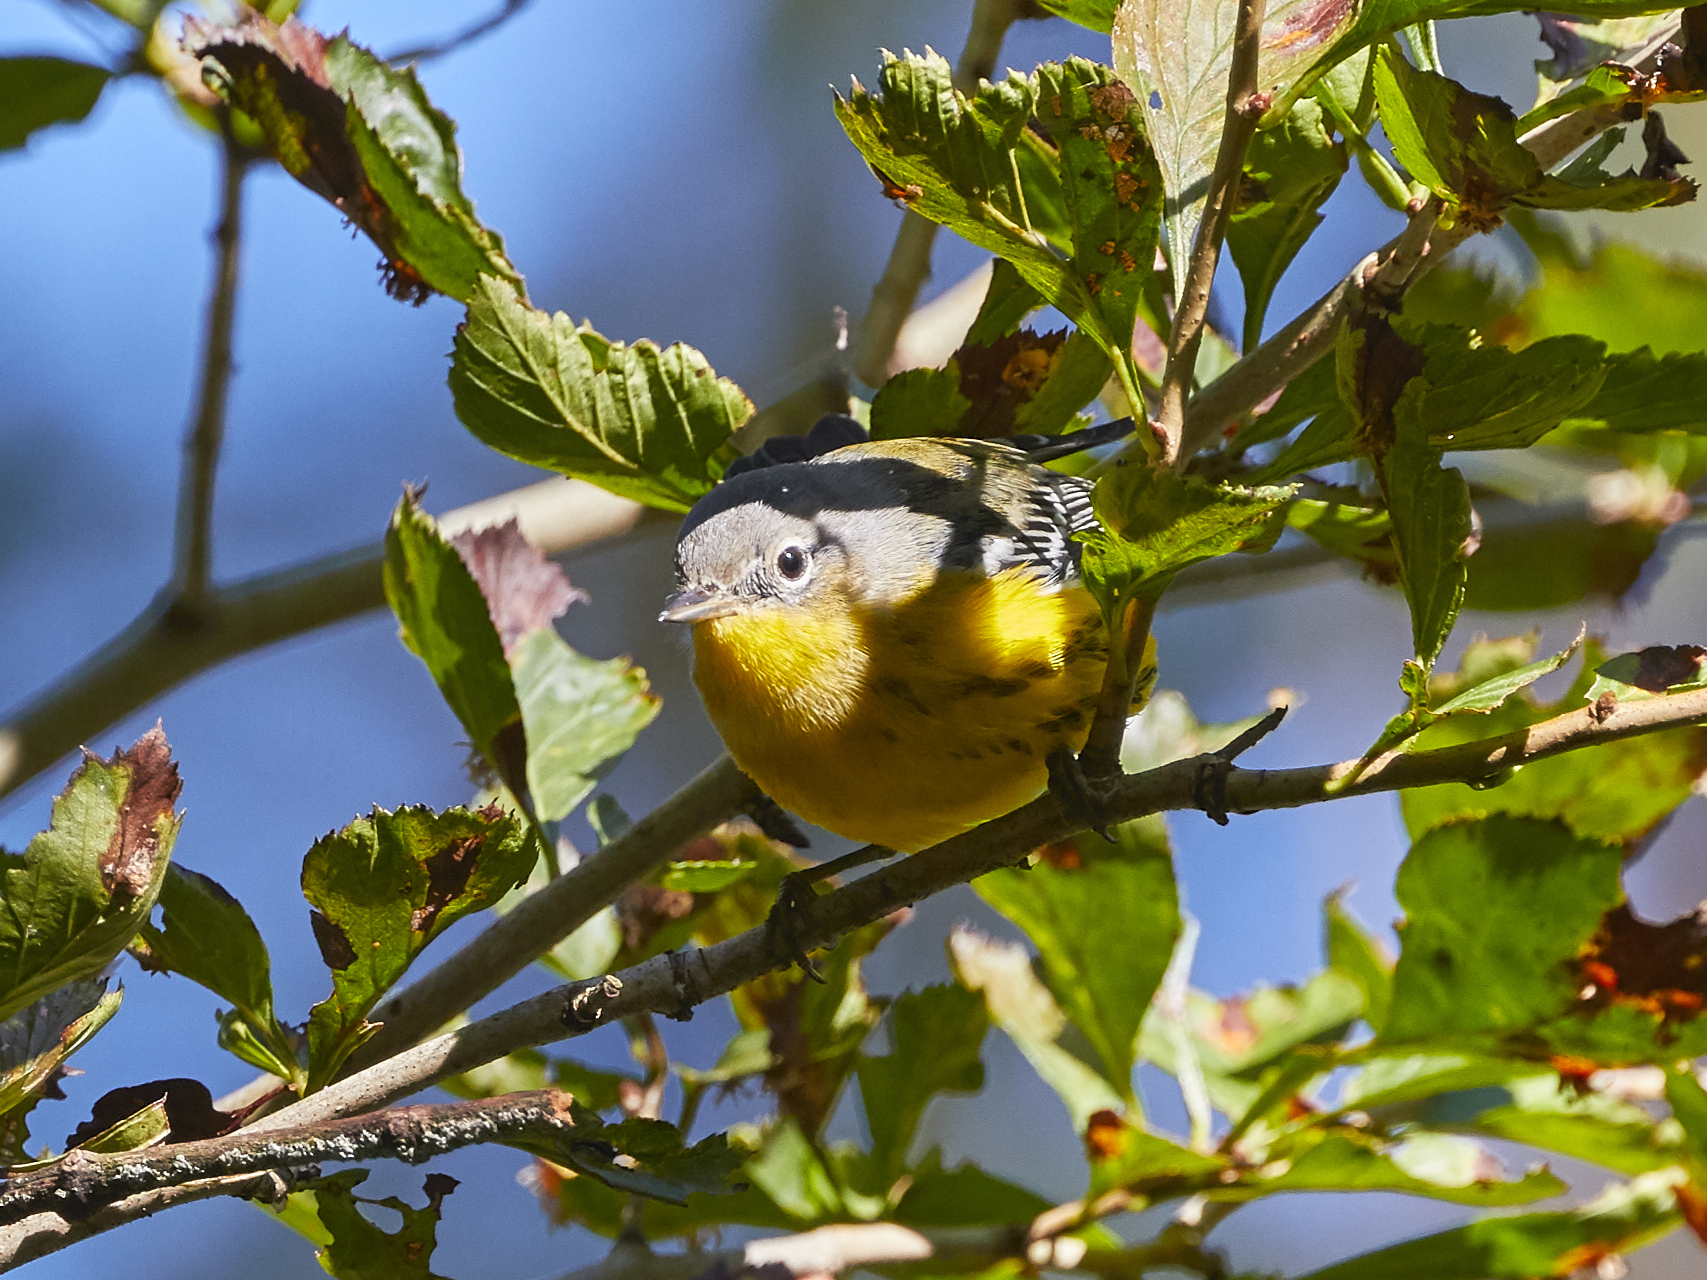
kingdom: Animalia
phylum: Chordata
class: Aves
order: Passeriformes
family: Parulidae
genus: Setophaga
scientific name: Setophaga magnolia
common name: Magnolia warbler
